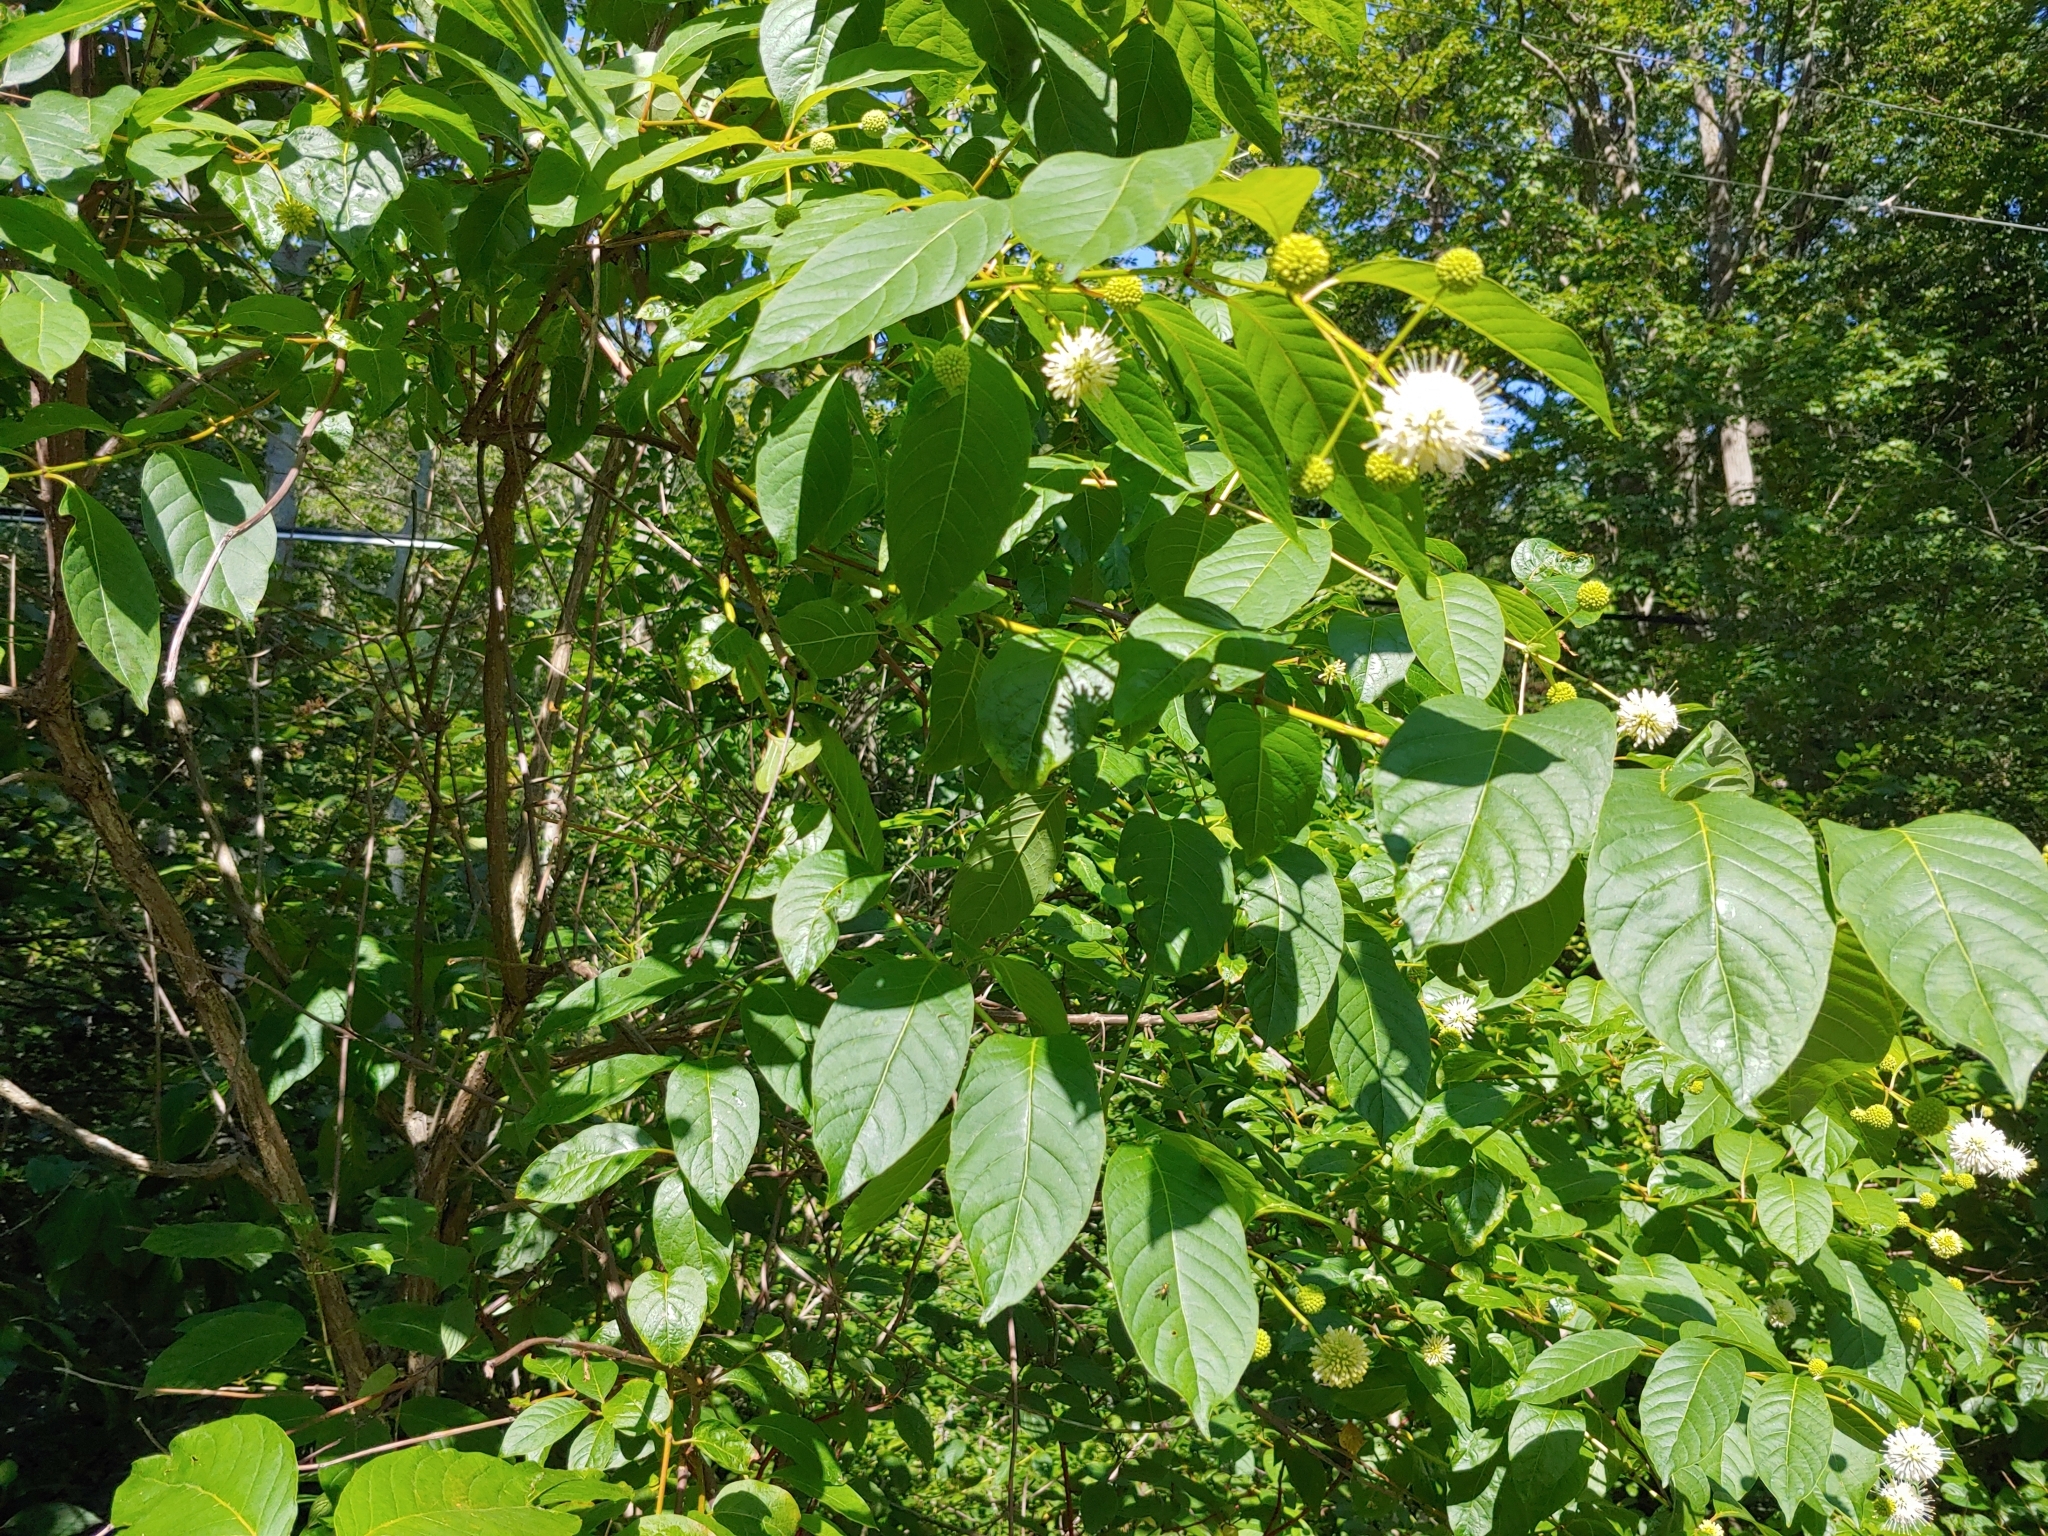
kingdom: Plantae
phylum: Tracheophyta
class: Magnoliopsida
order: Gentianales
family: Rubiaceae
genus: Cephalanthus
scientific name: Cephalanthus occidentalis
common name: Button-willow
